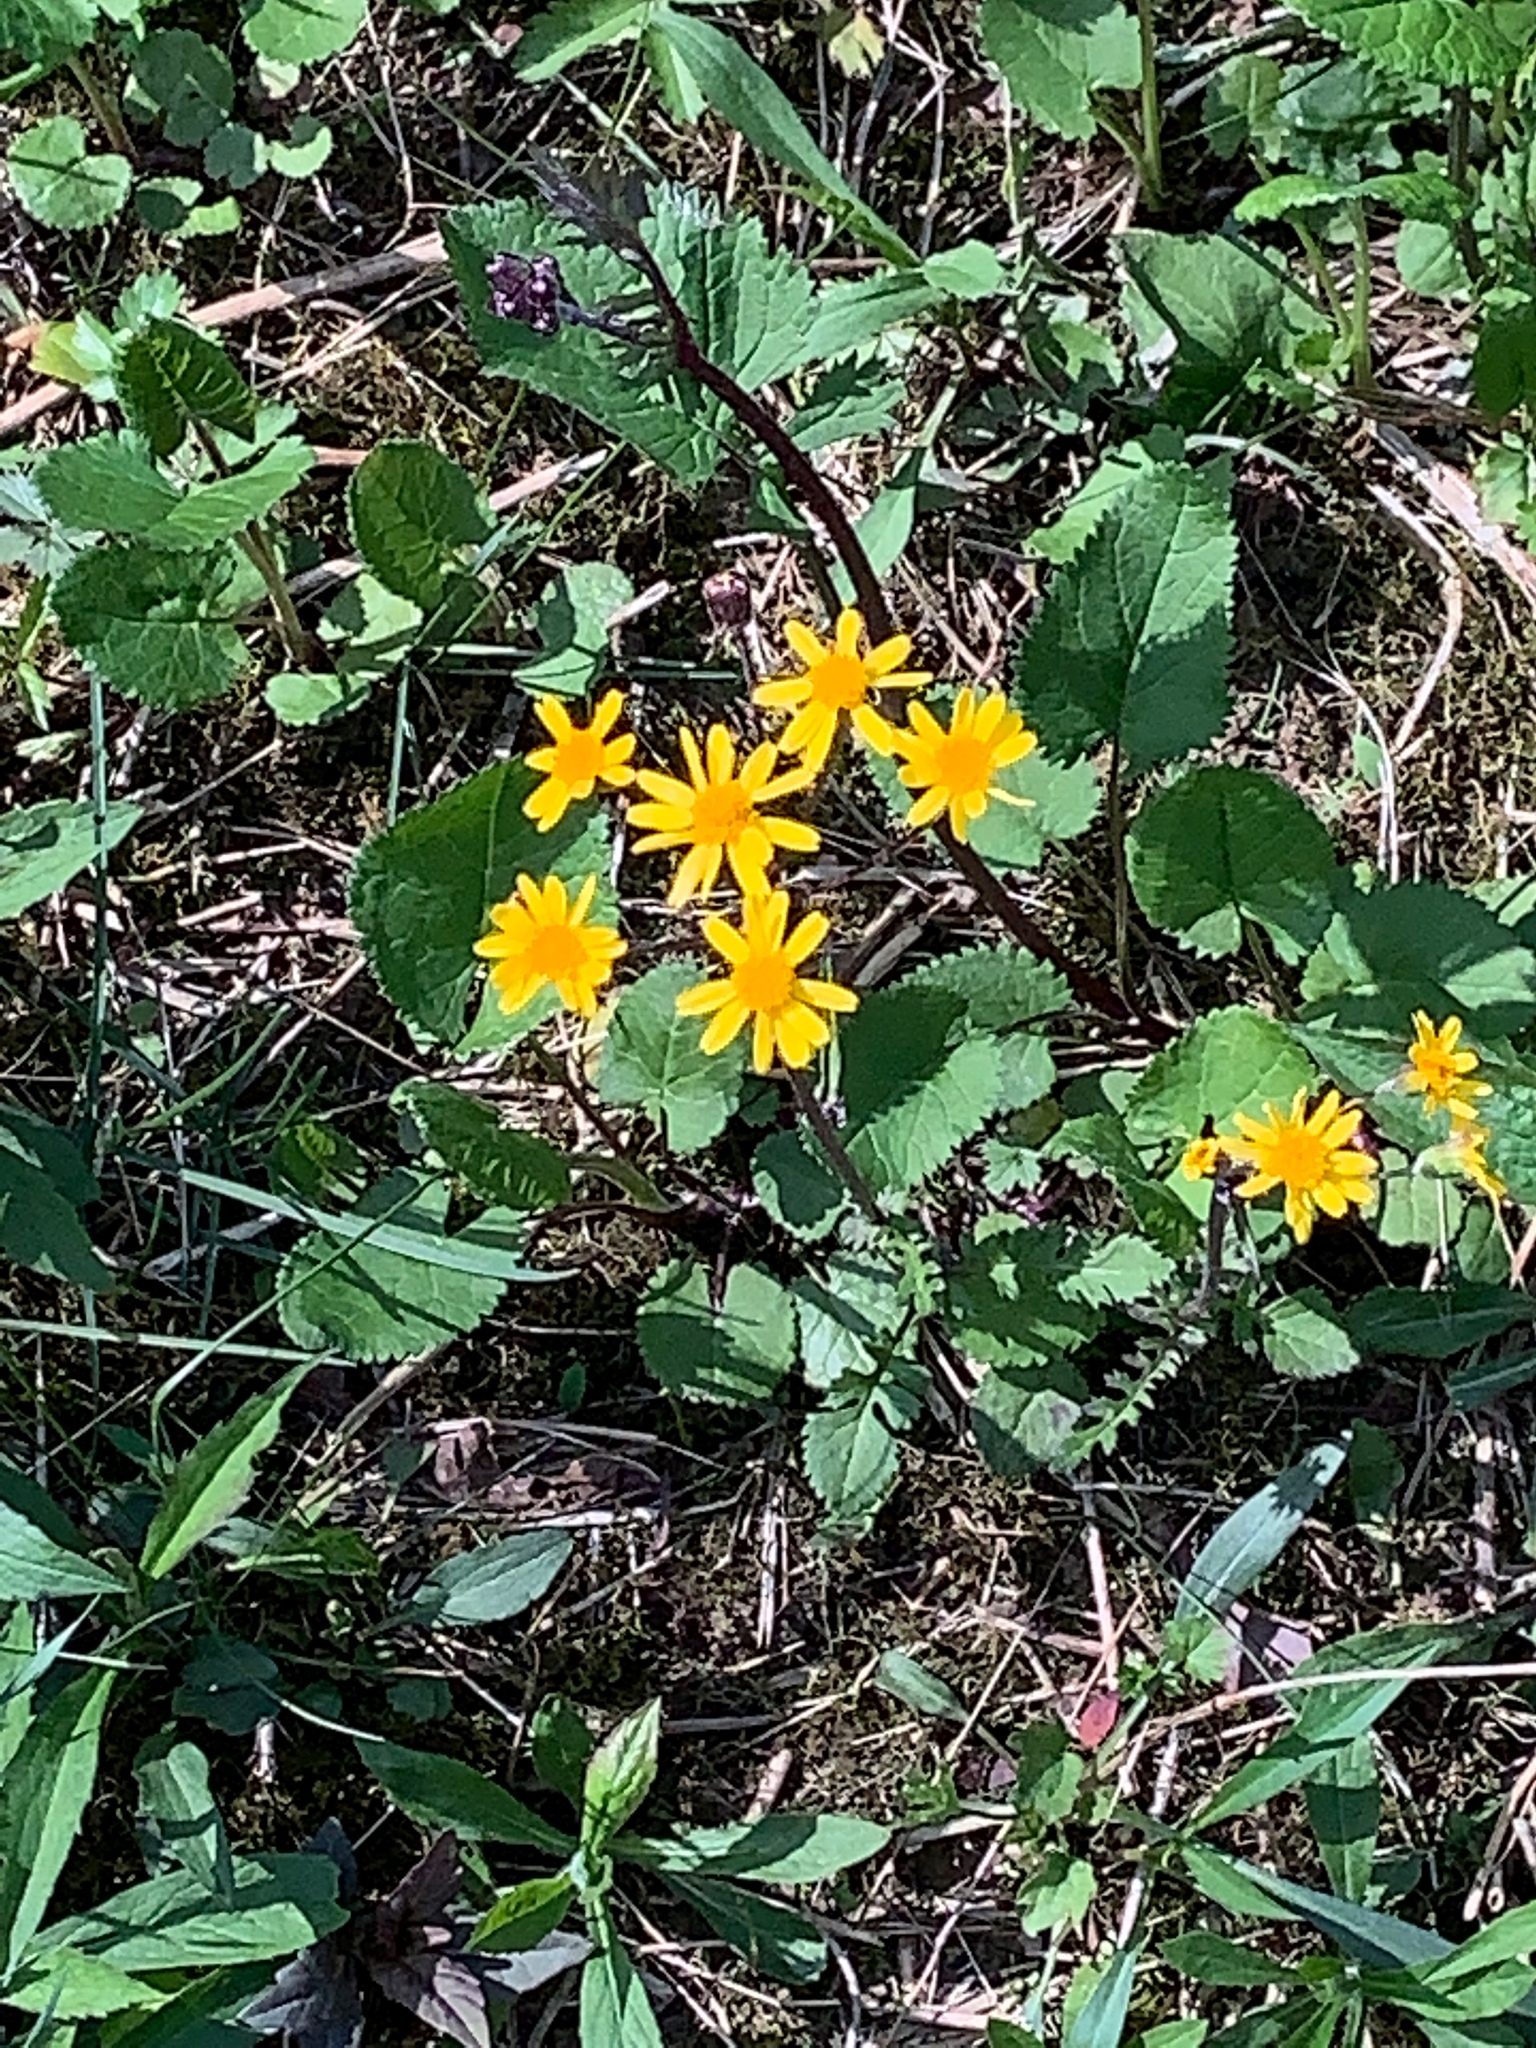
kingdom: Plantae
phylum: Tracheophyta
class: Magnoliopsida
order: Asterales
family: Asteraceae
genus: Packera
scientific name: Packera aurea
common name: Golden groundsel
